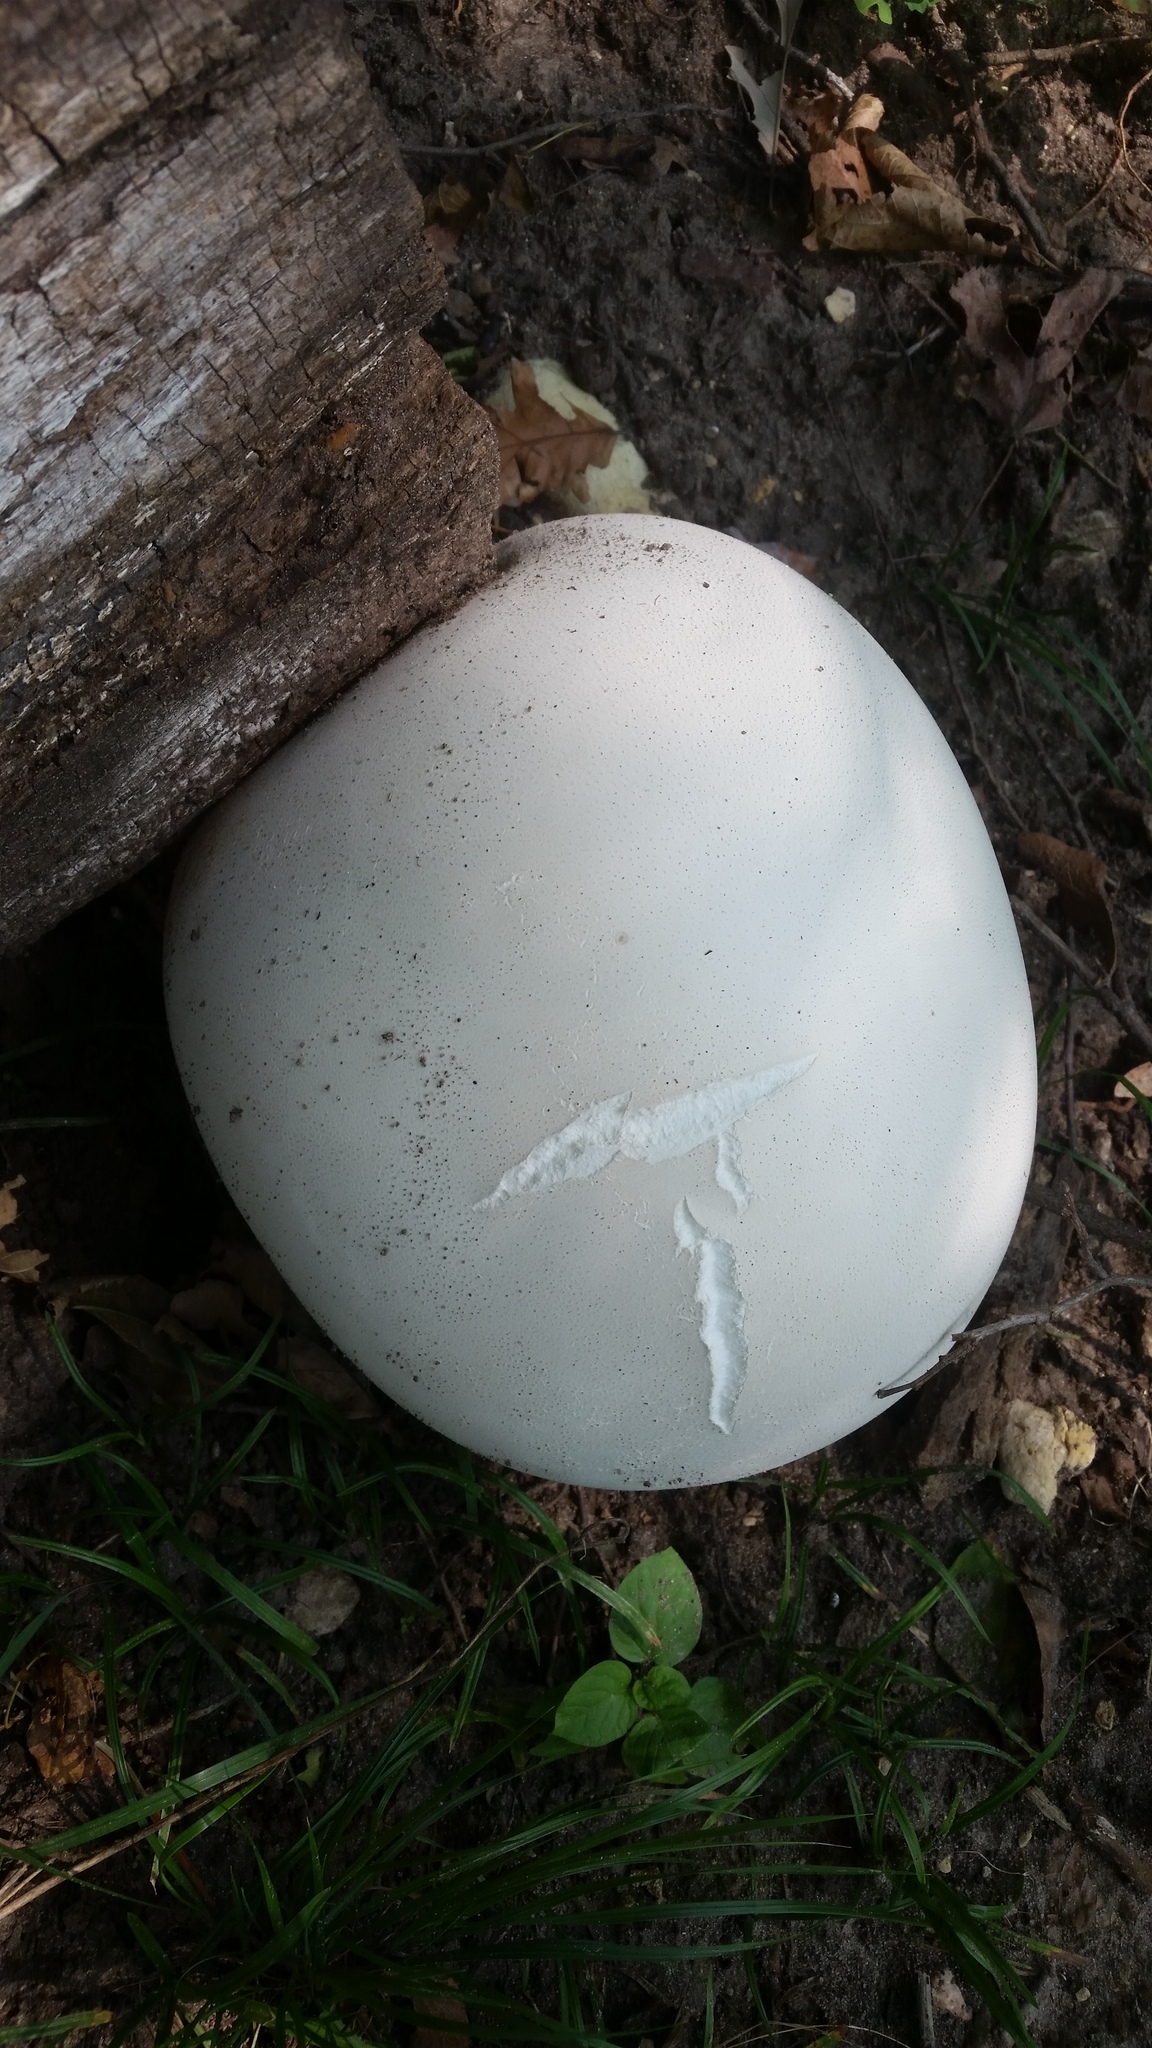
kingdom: Fungi
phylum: Basidiomycota
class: Agaricomycetes
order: Agaricales
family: Lycoperdaceae
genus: Calvatia
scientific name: Calvatia gigantea
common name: Giant puffball
